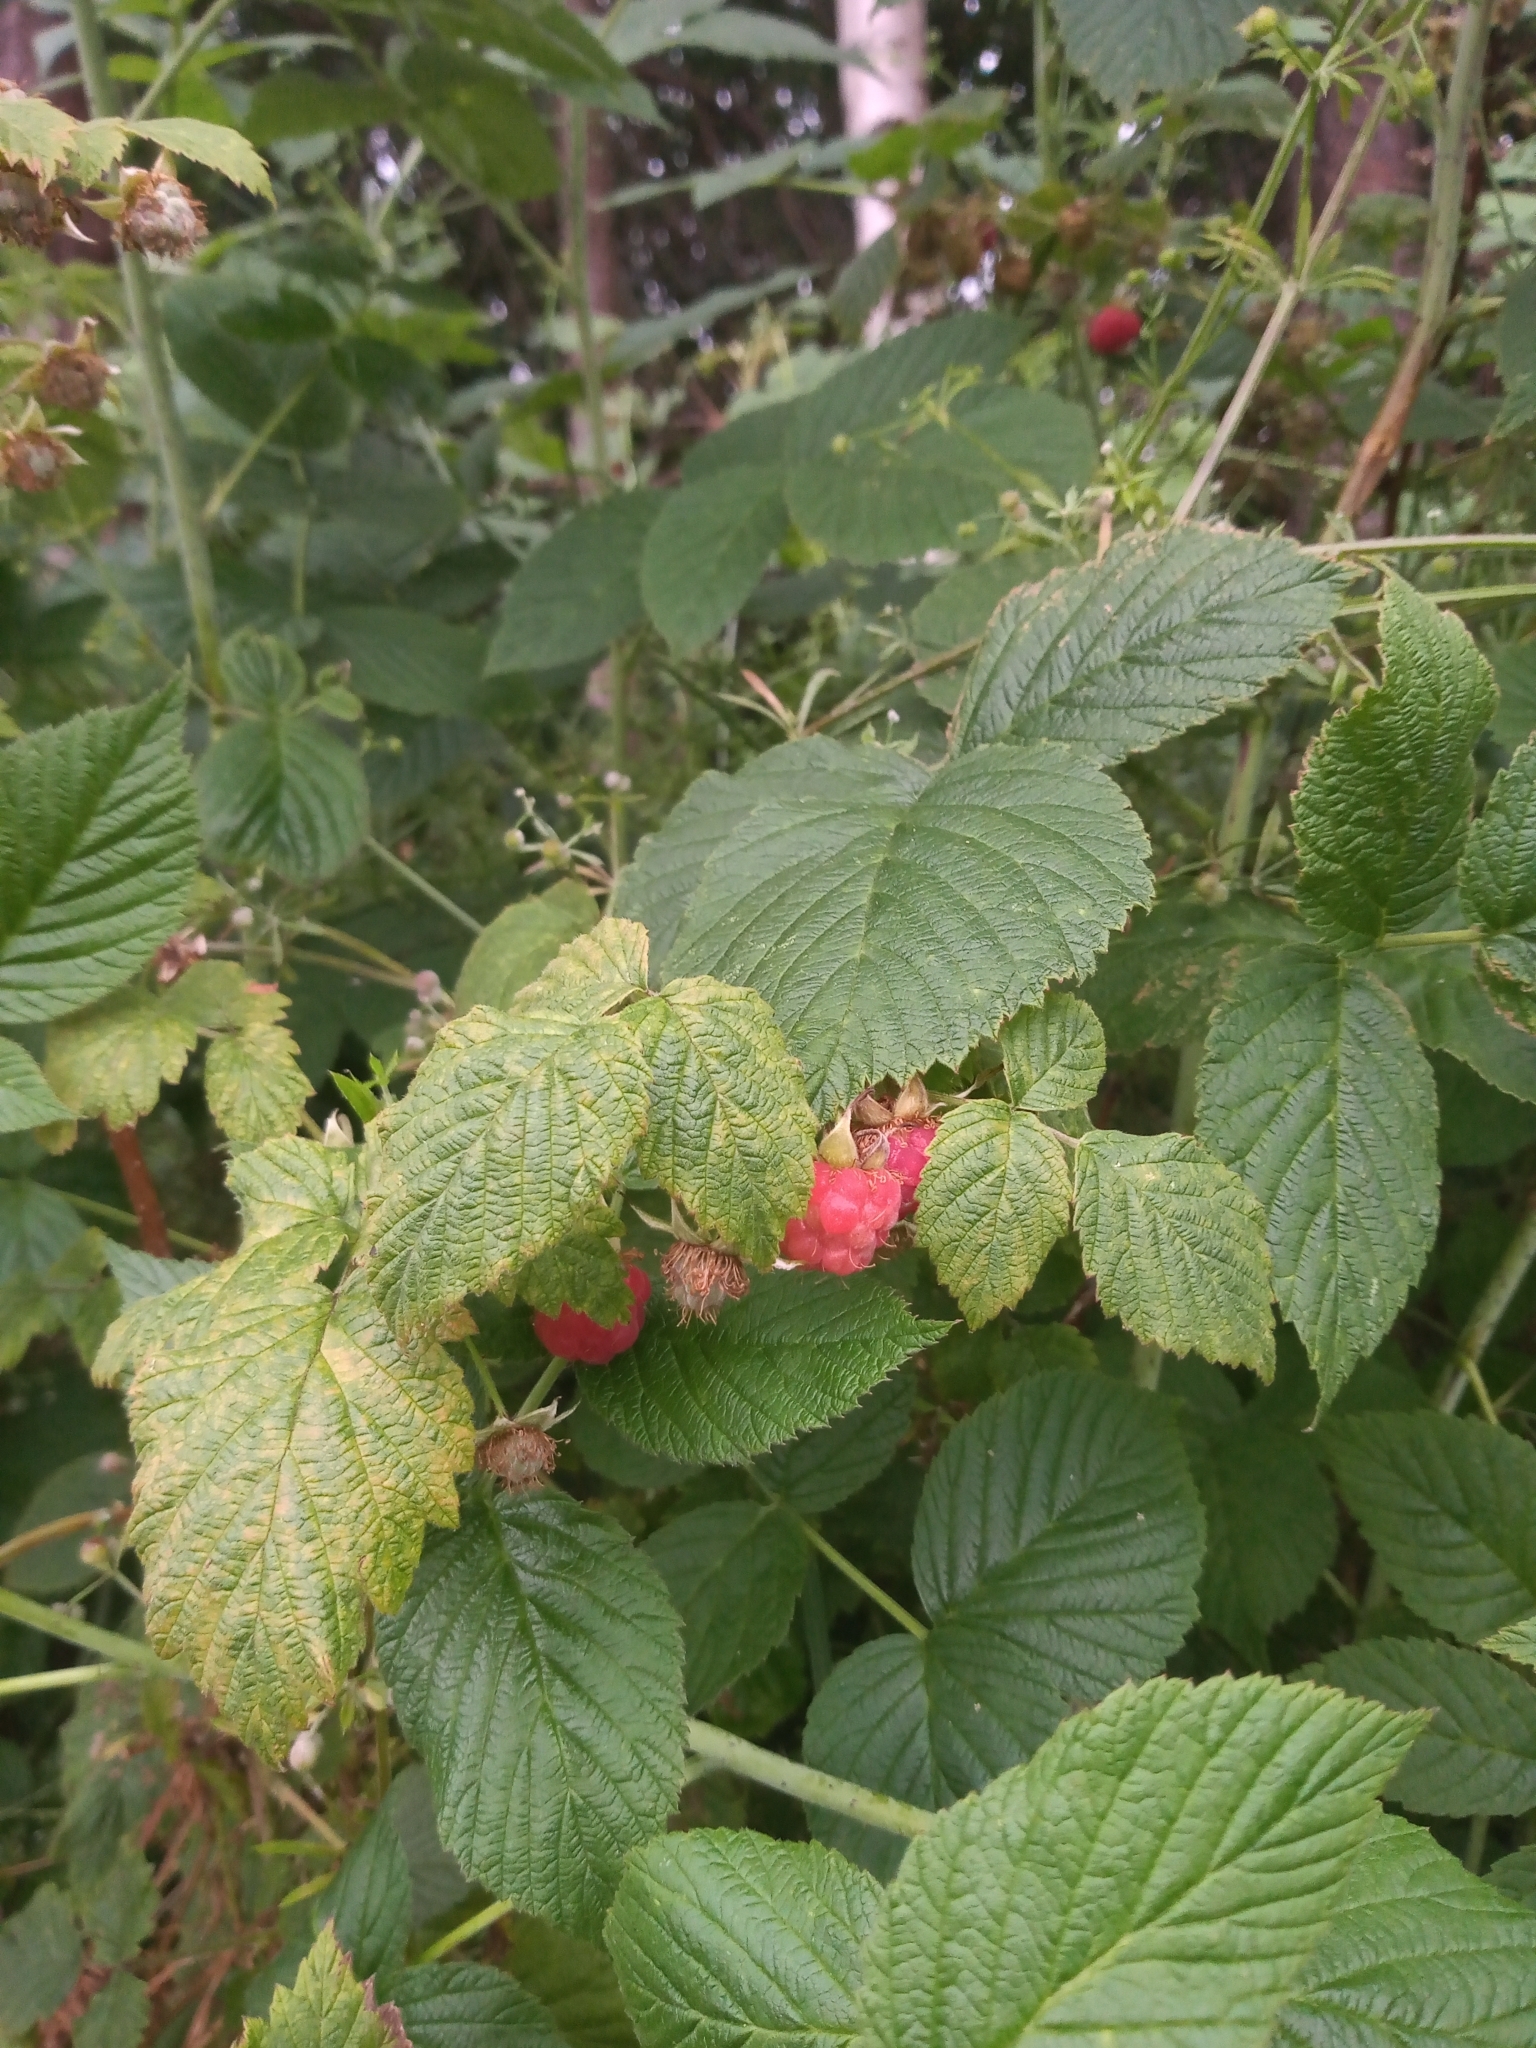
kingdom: Plantae
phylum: Tracheophyta
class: Magnoliopsida
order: Rosales
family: Rosaceae
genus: Rubus
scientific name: Rubus idaeus
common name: Raspberry
